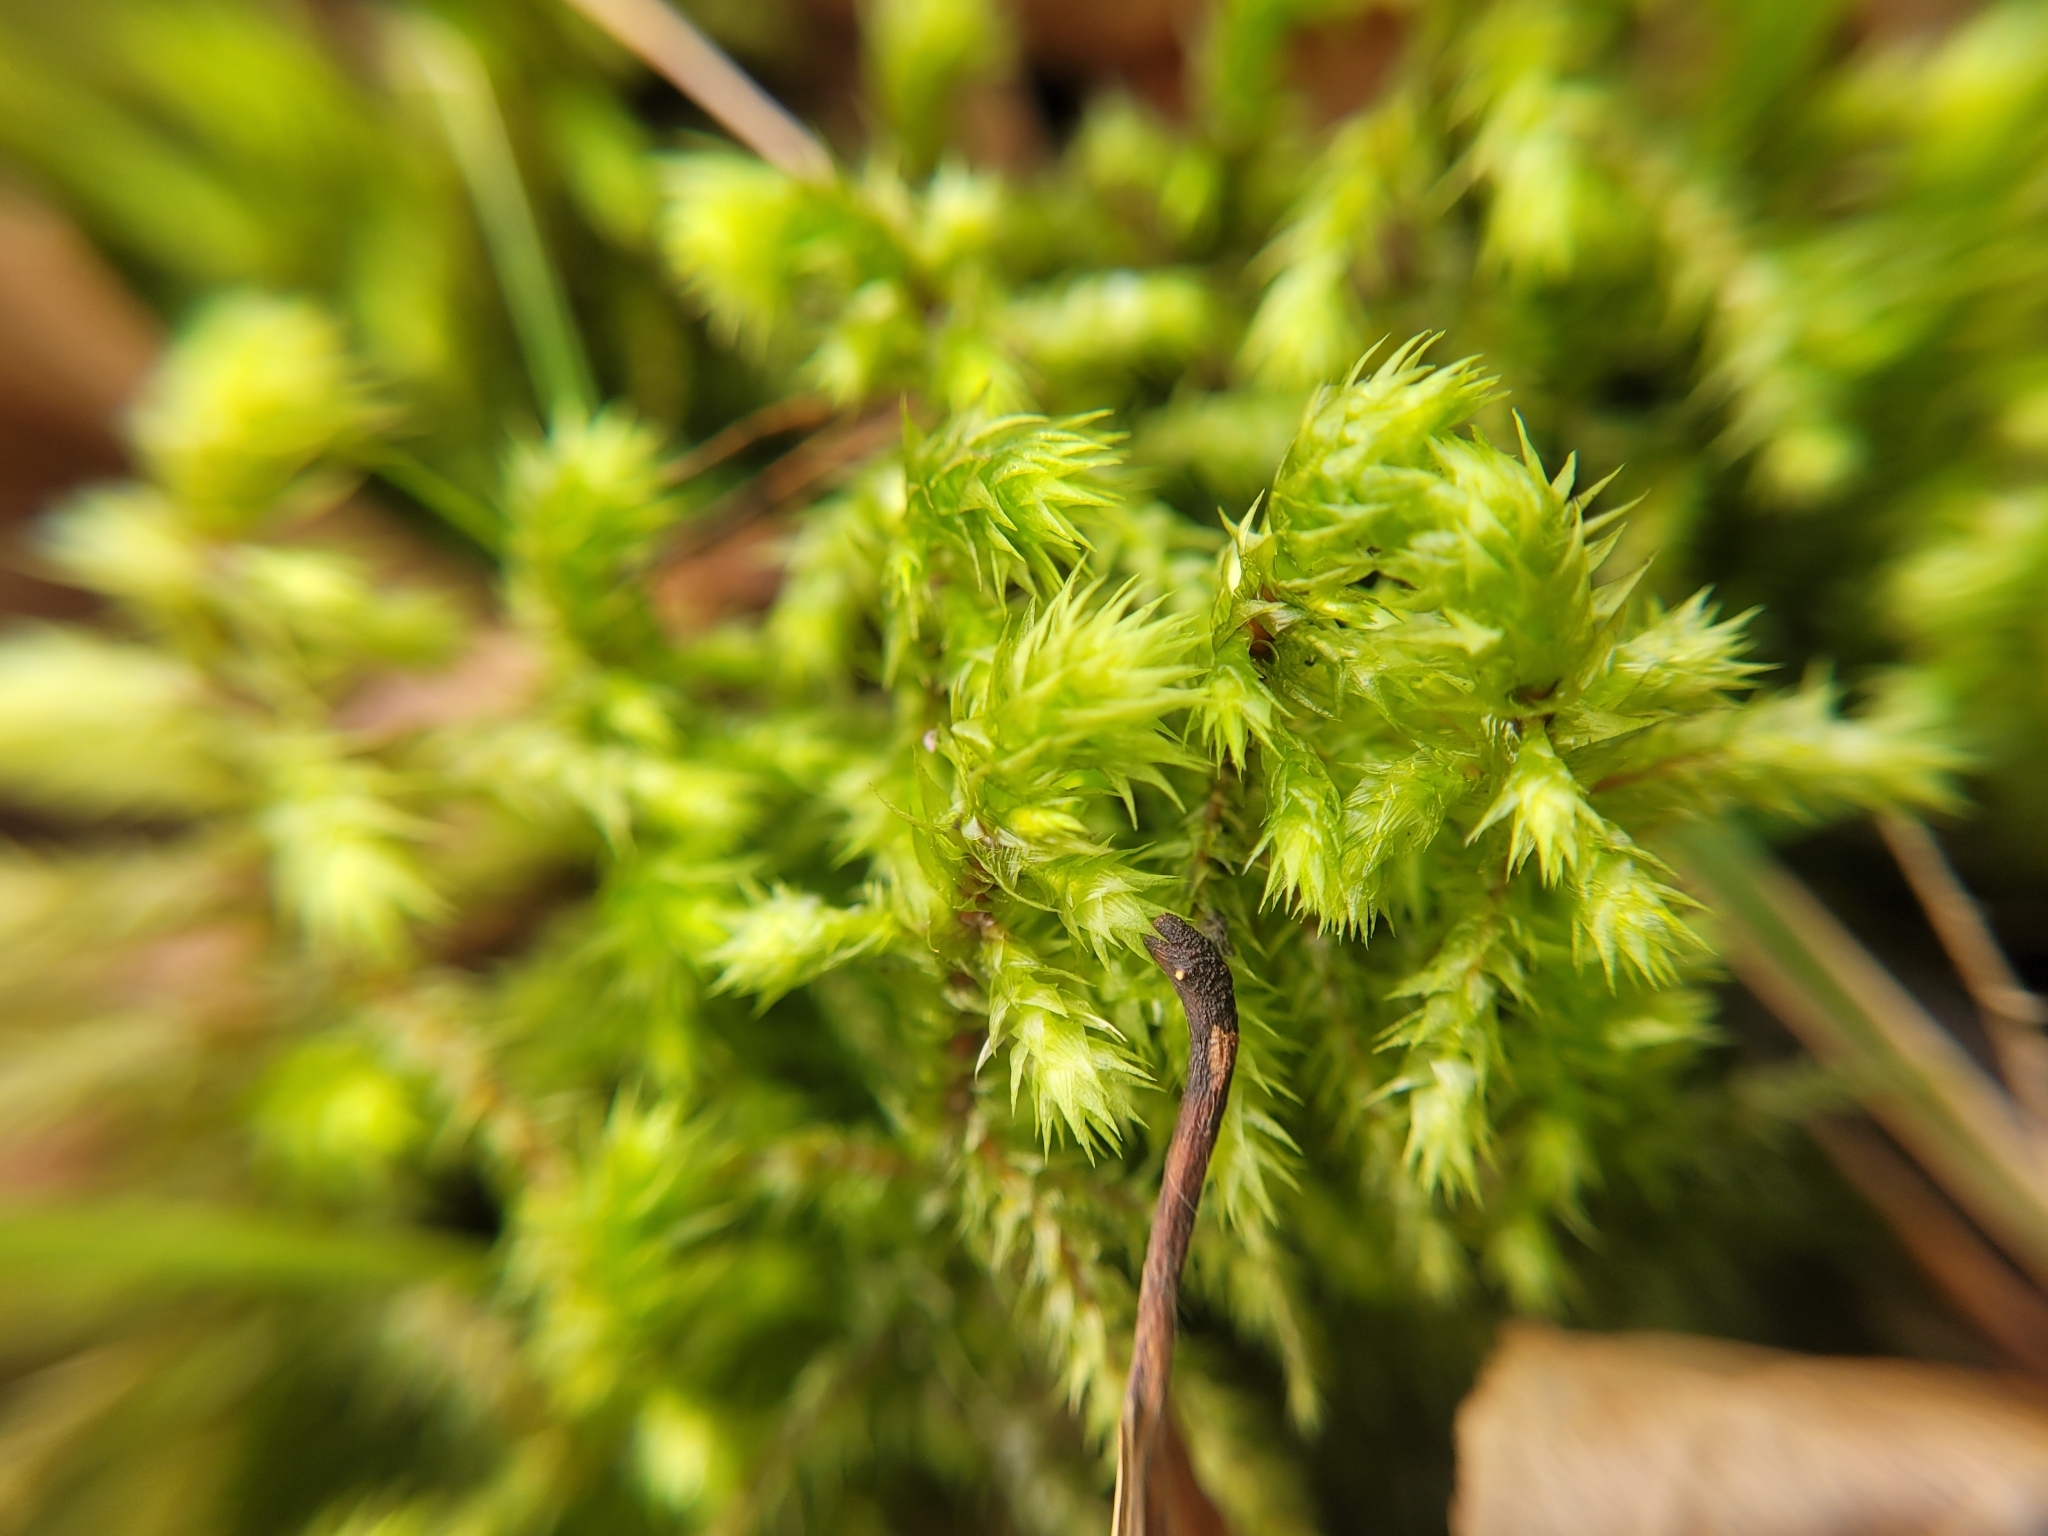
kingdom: Plantae
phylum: Bryophyta
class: Bryopsida
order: Hypnales
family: Hylocomiaceae
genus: Hylocomiadelphus
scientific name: Hylocomiadelphus triquetrus
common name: Rough goose neck moss
